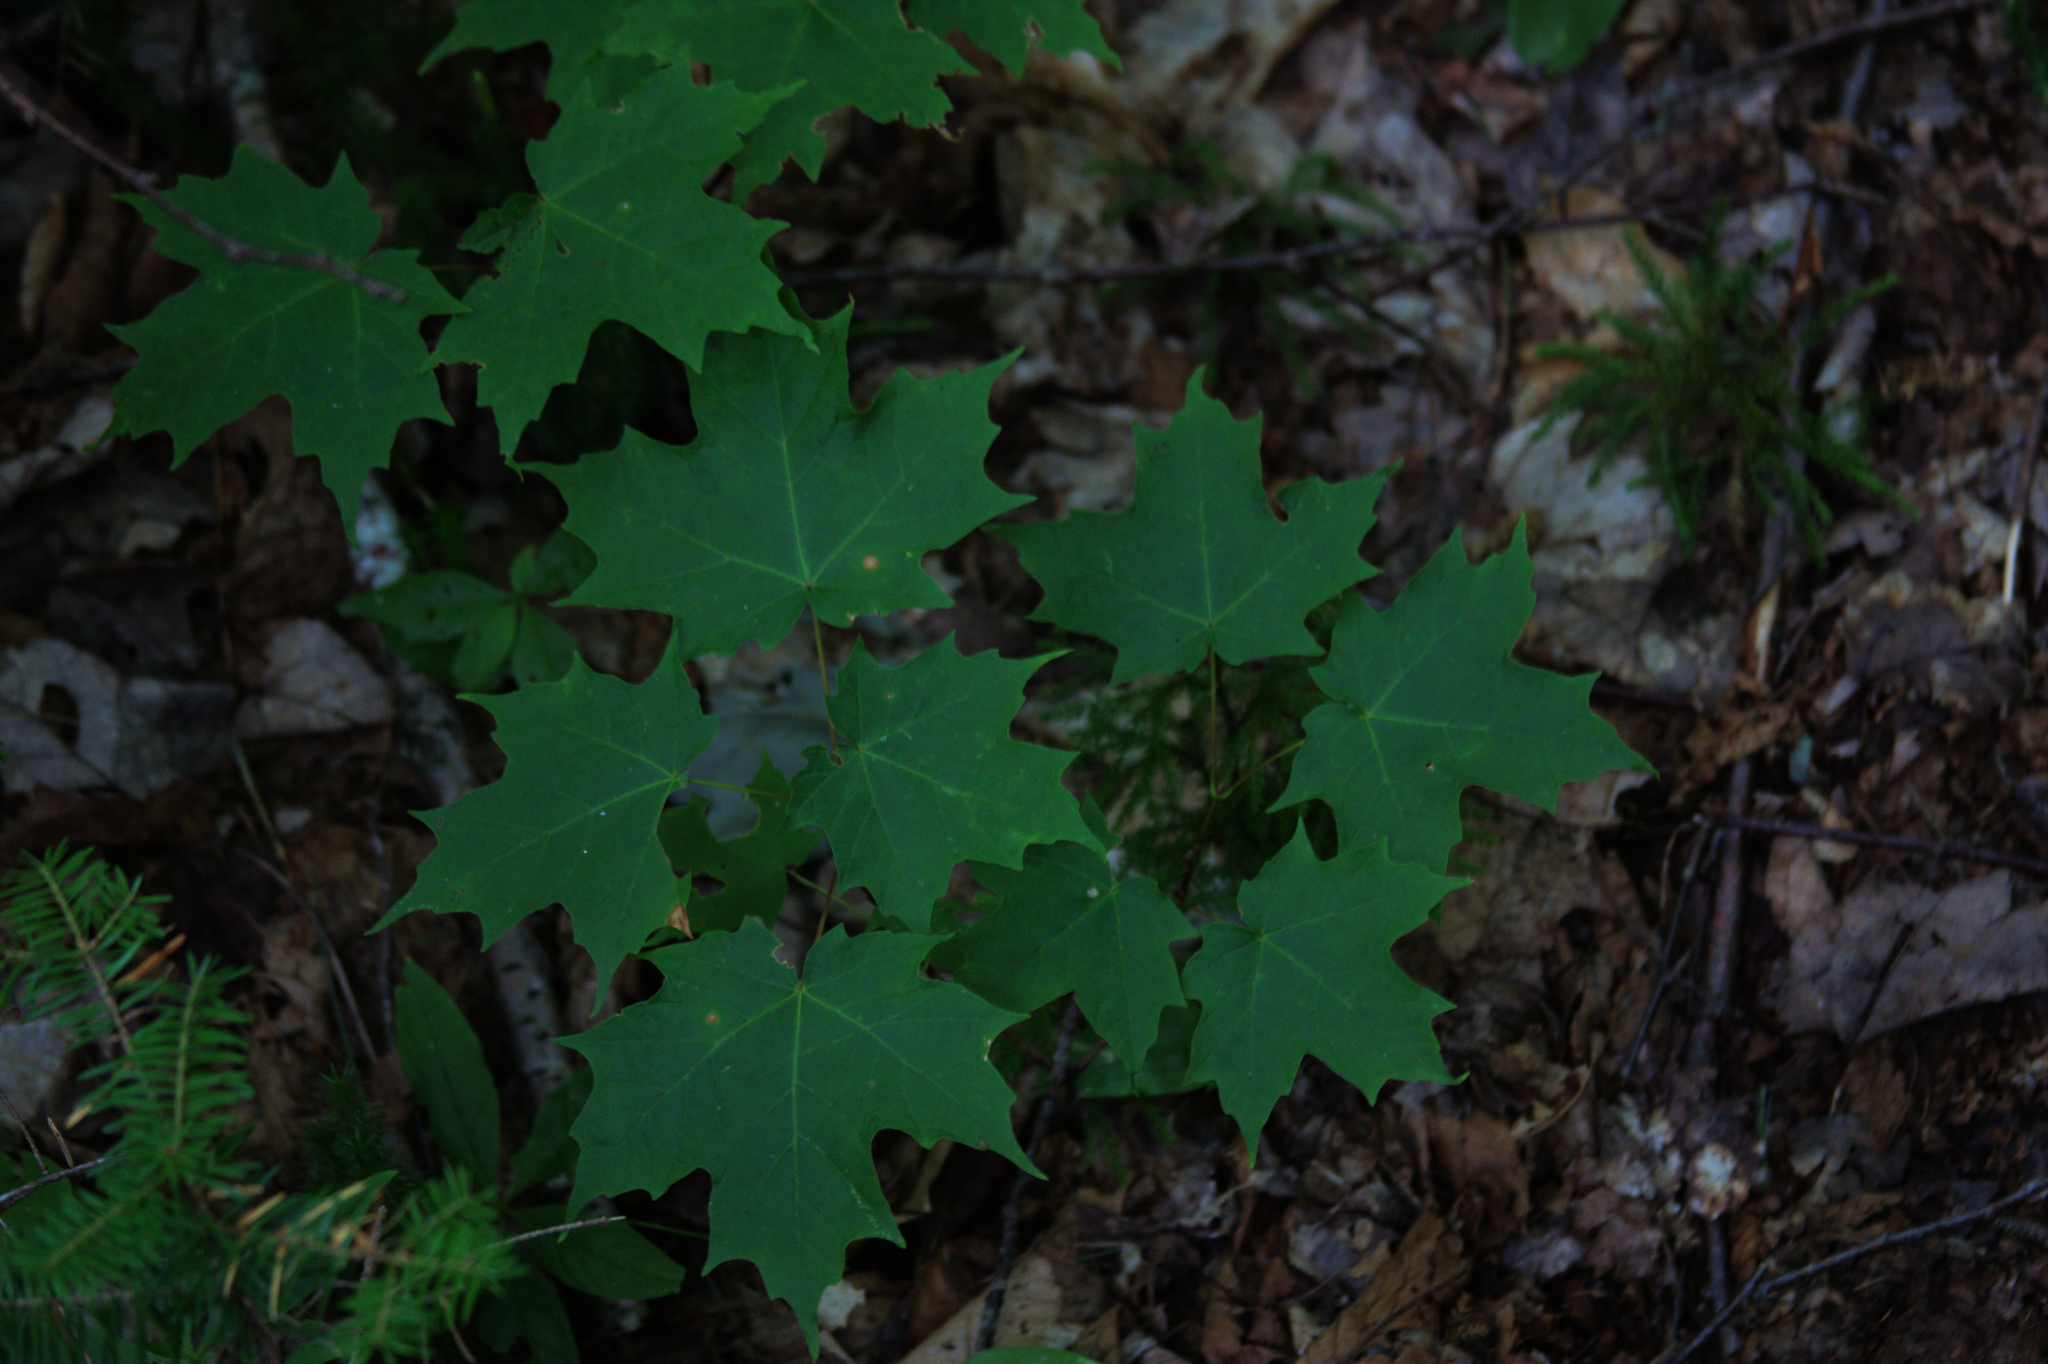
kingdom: Plantae
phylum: Tracheophyta
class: Magnoliopsida
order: Sapindales
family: Sapindaceae
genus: Acer
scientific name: Acer saccharum
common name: Sugar maple
